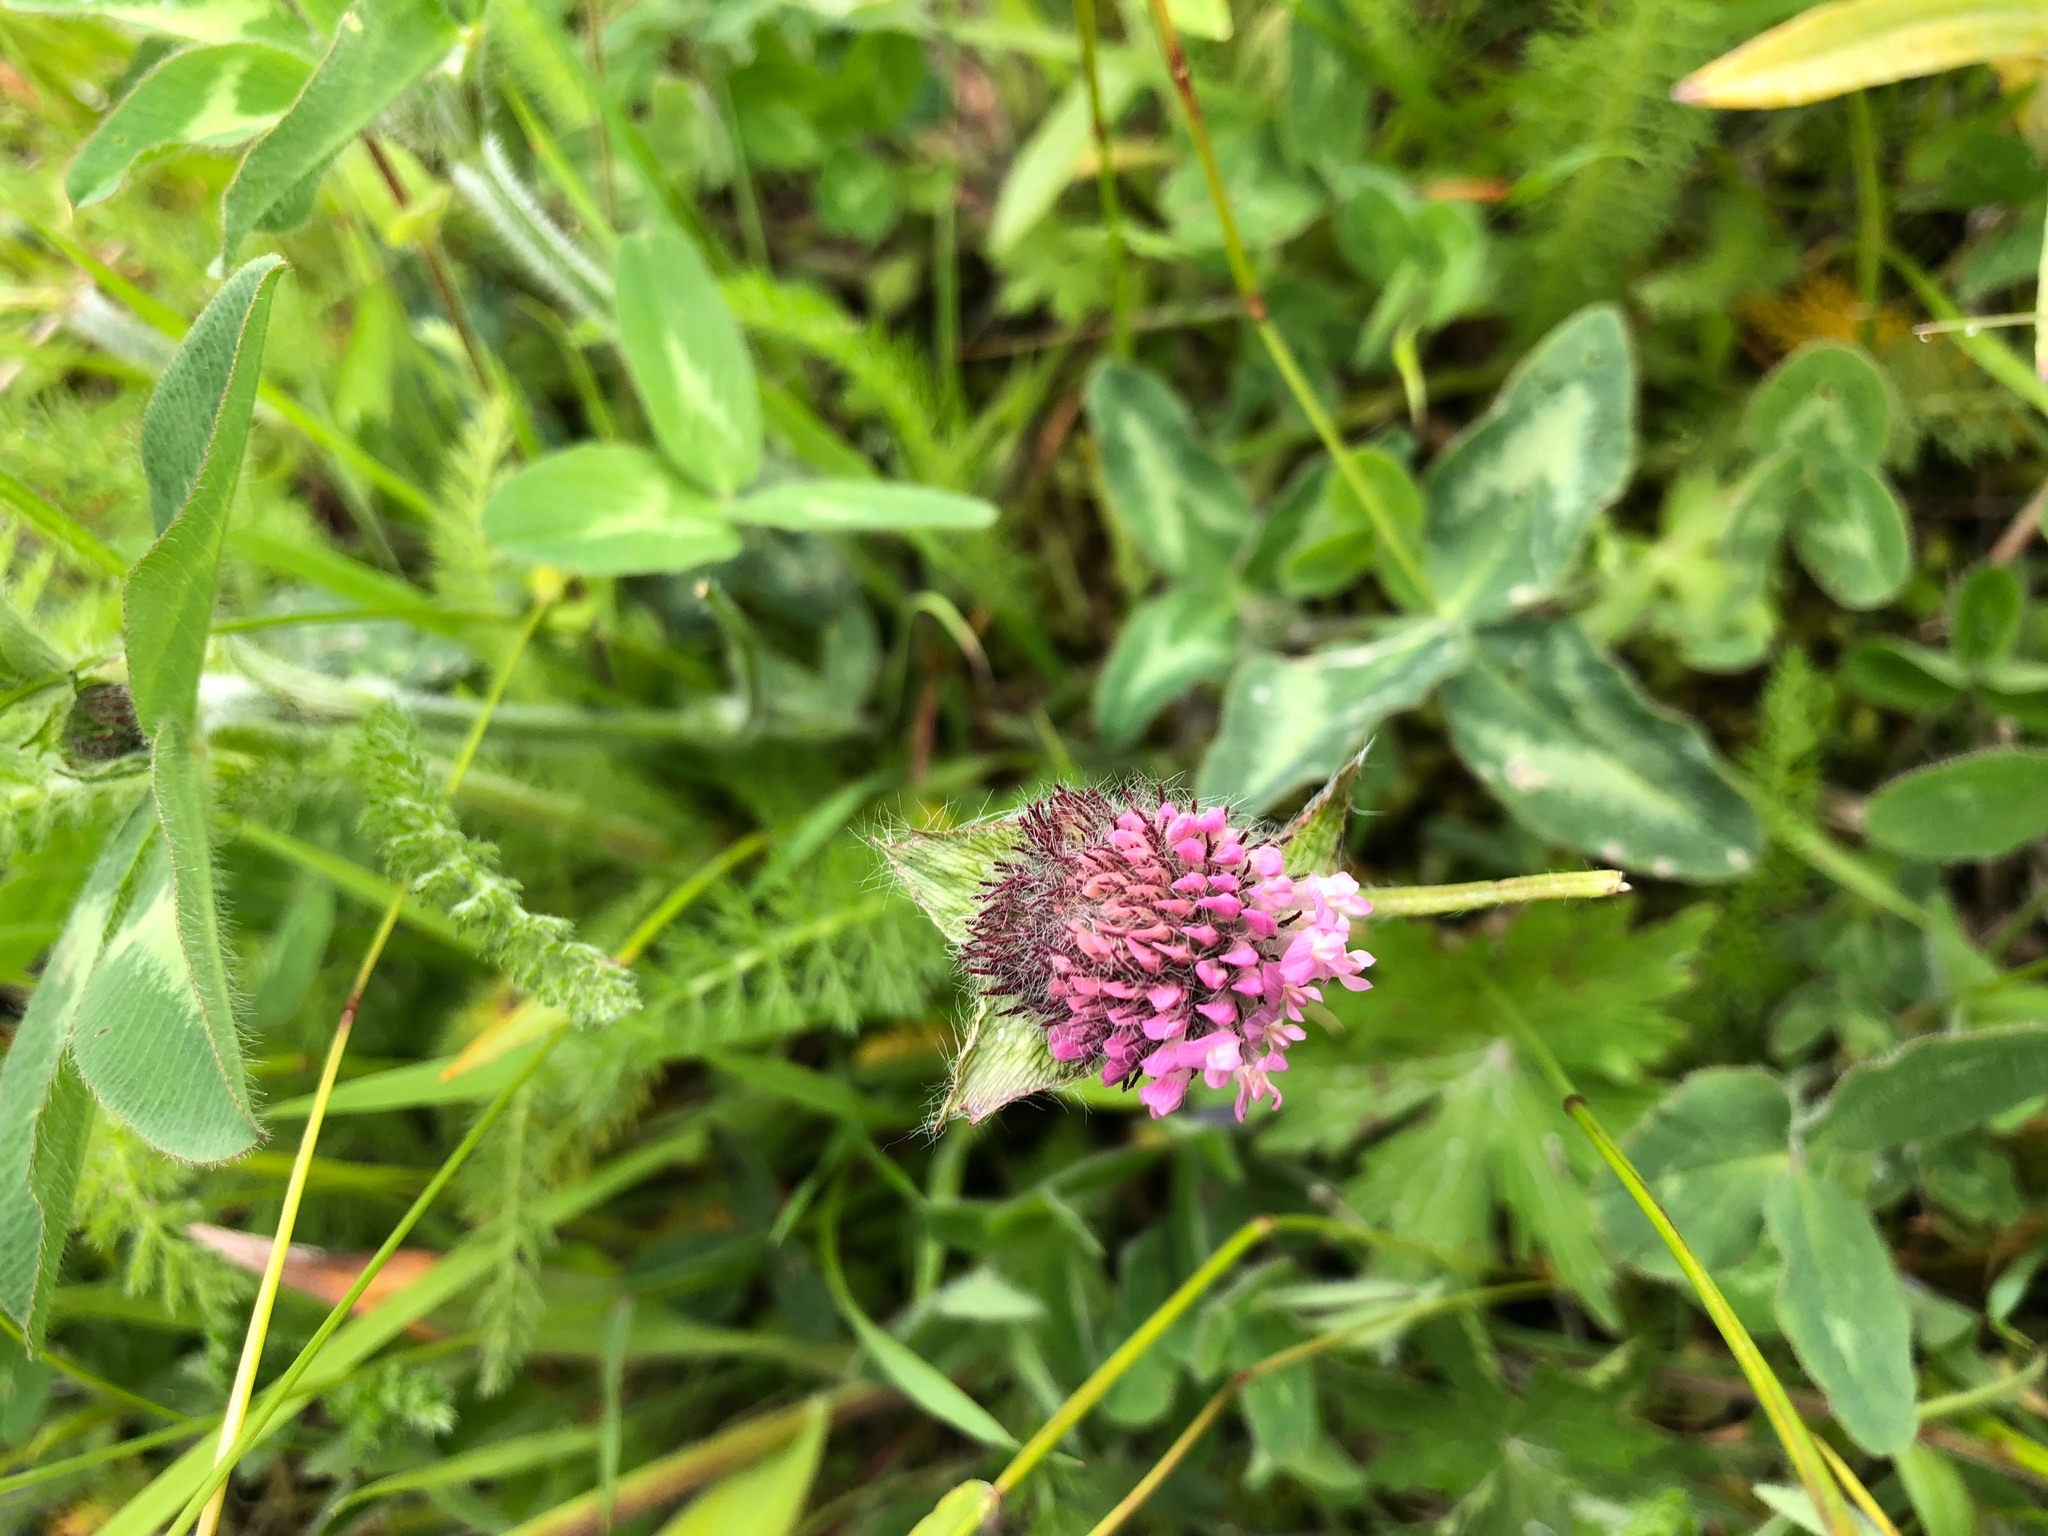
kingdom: Plantae
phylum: Tracheophyta
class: Magnoliopsida
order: Fabales
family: Fabaceae
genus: Trifolium
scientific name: Trifolium pratense
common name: Red clover
